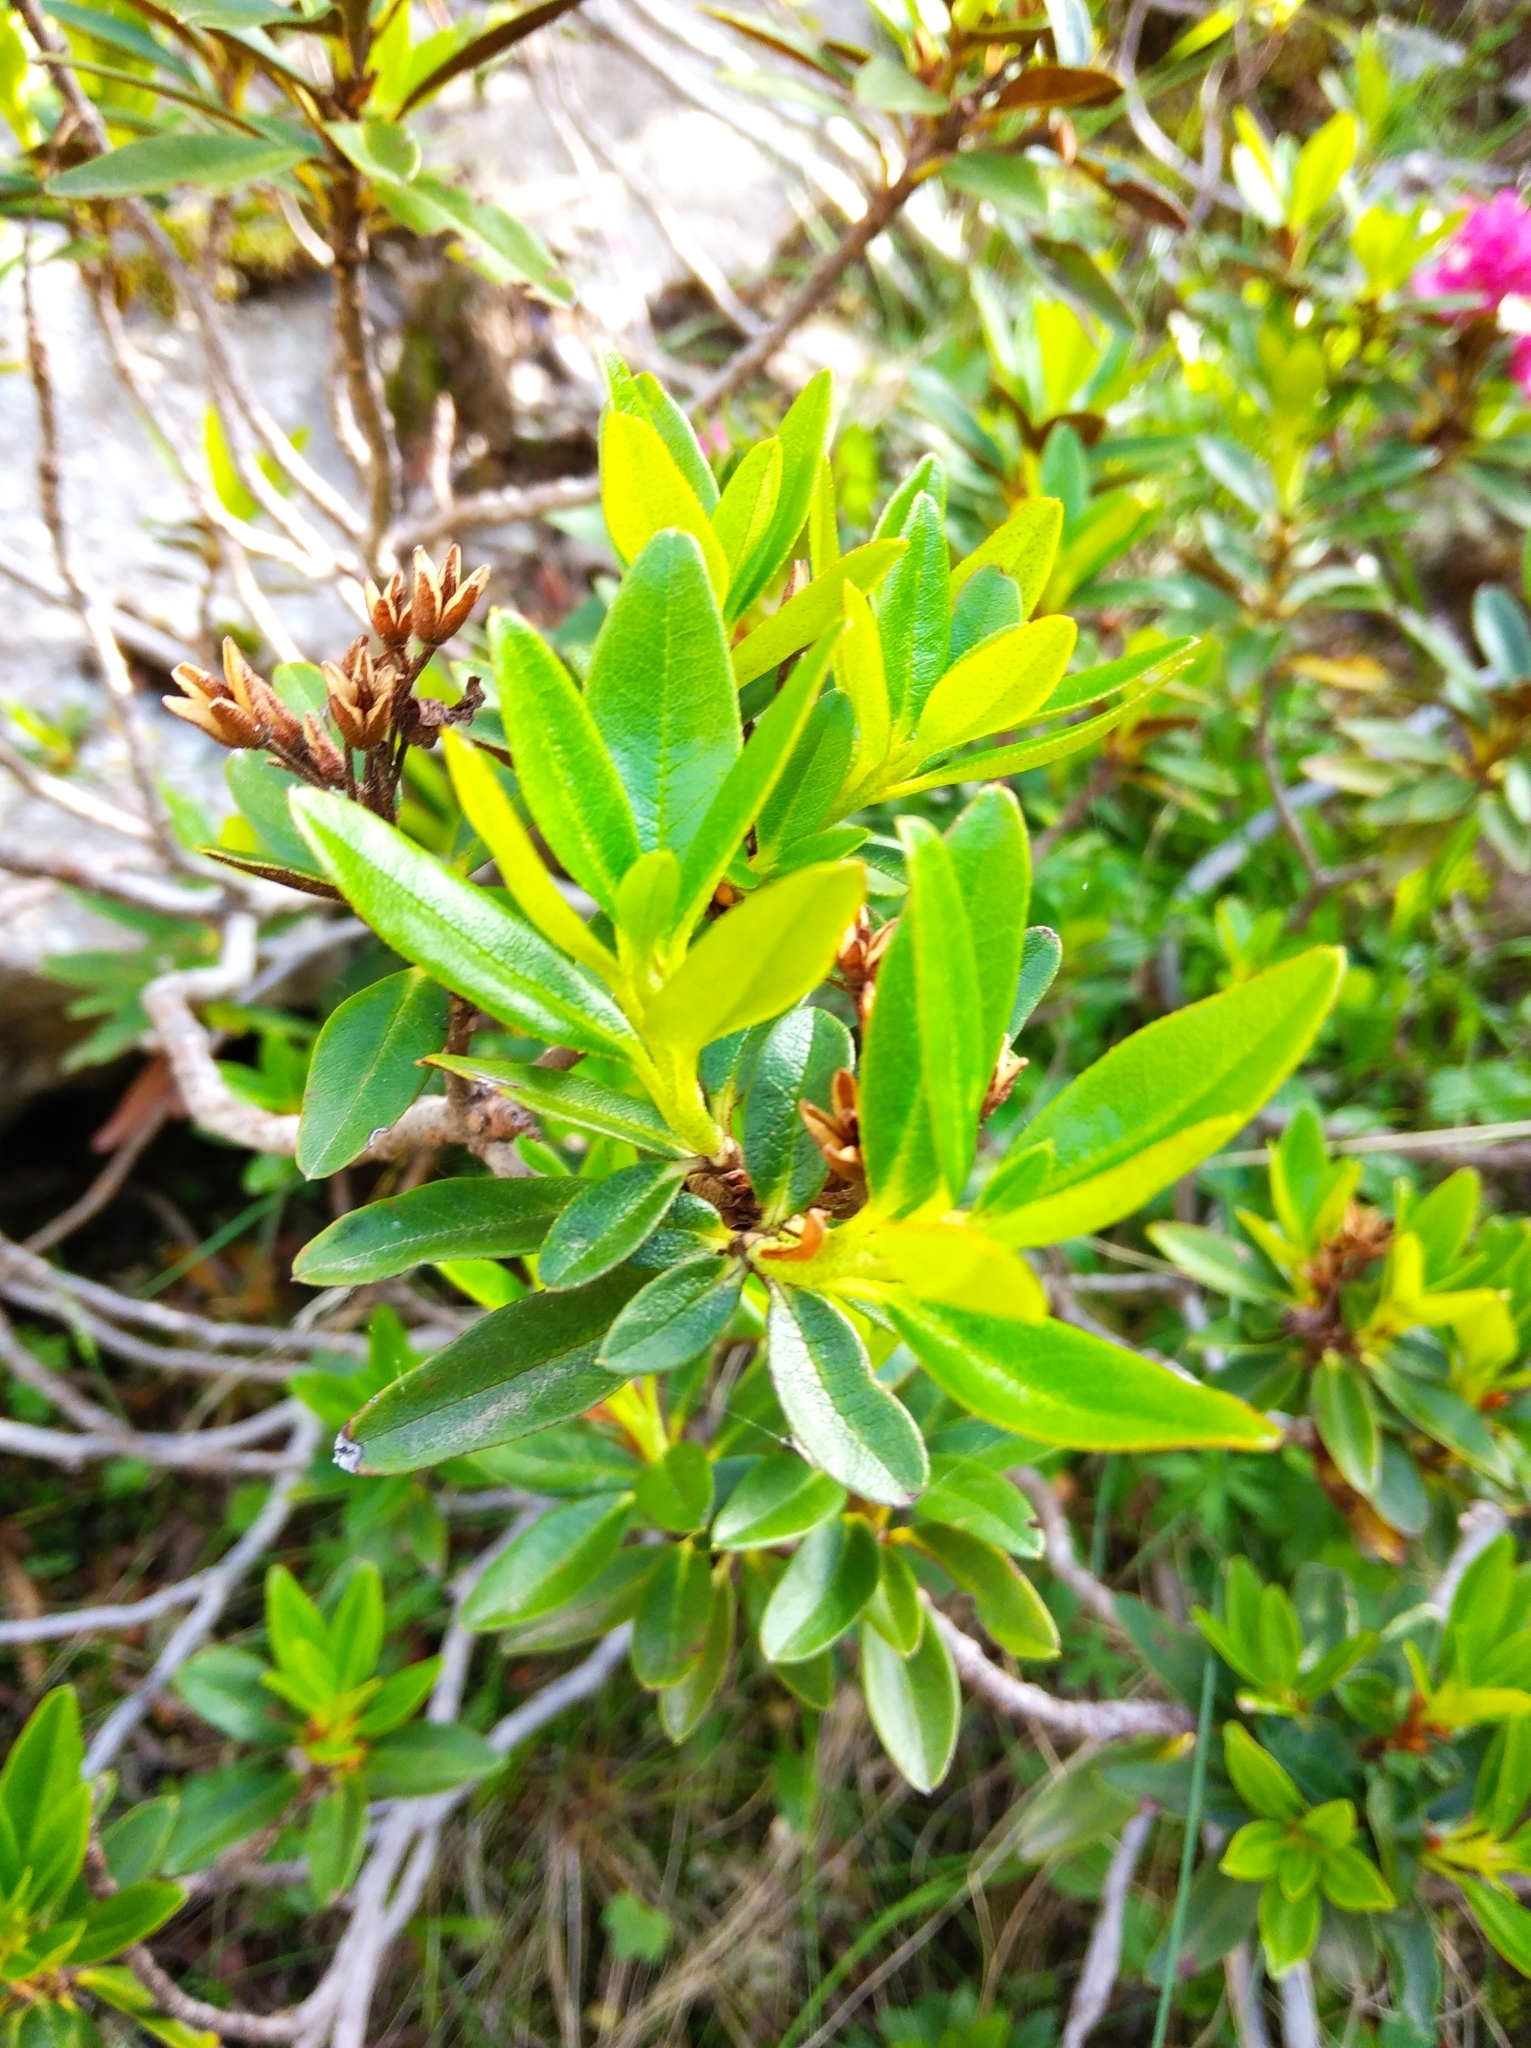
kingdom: Plantae
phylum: Tracheophyta
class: Magnoliopsida
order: Ericales
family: Ericaceae
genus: Rhododendron
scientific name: Rhododendron ferrugineum
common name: Alpenrose
